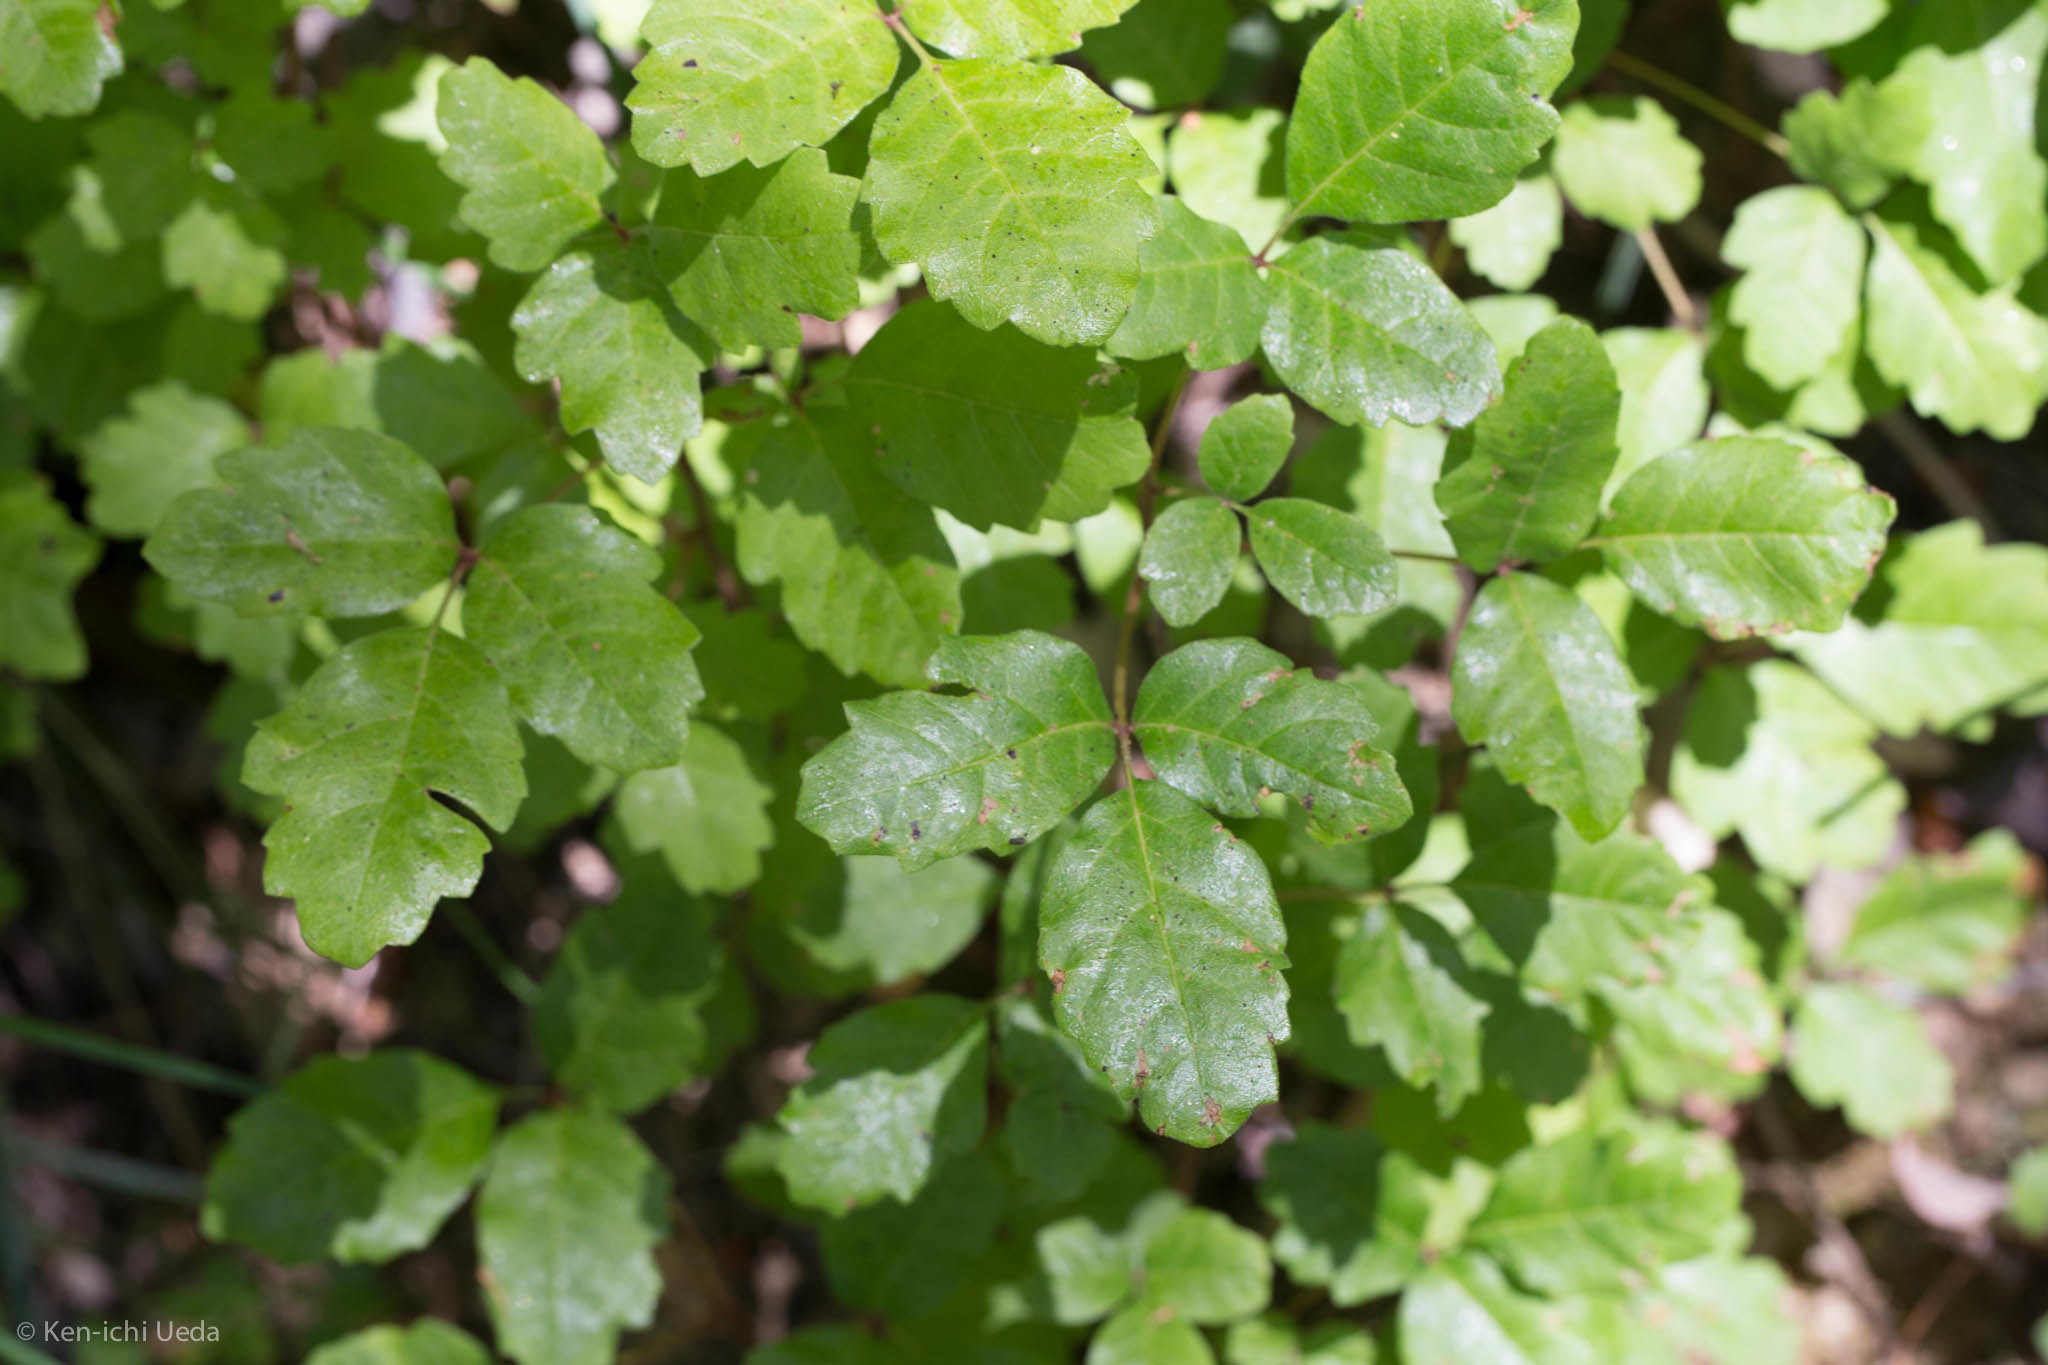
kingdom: Plantae
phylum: Tracheophyta
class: Magnoliopsida
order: Sapindales
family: Anacardiaceae
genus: Toxicodendron
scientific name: Toxicodendron diversilobum
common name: Pacific poison-oak
